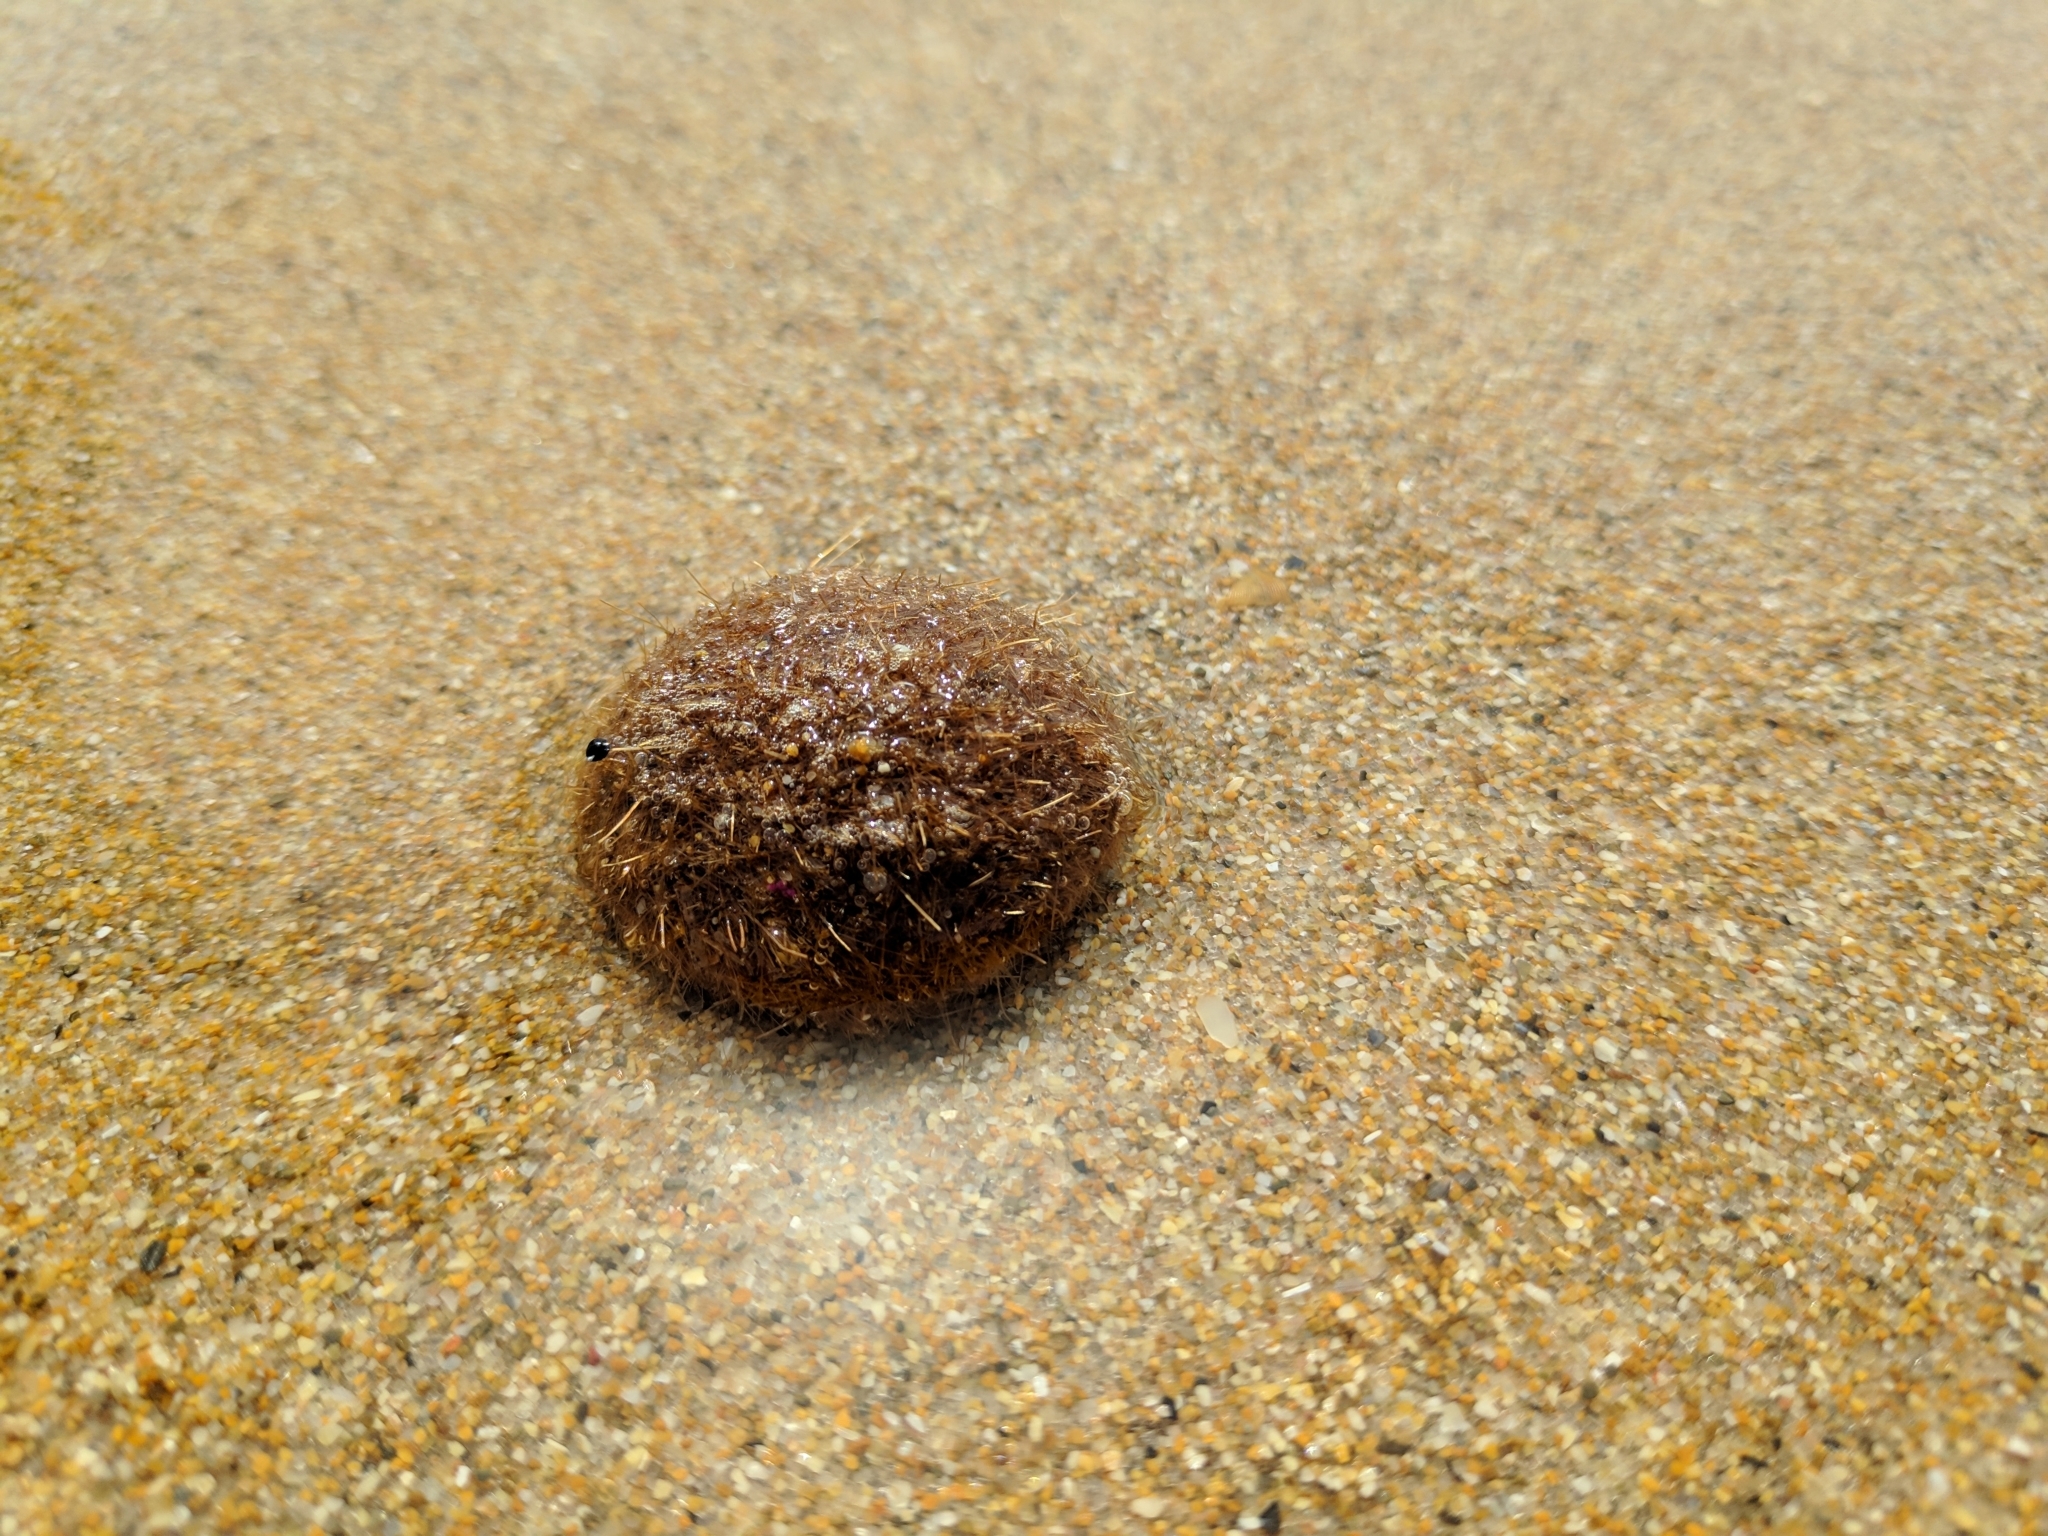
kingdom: Plantae
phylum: Tracheophyta
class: Liliopsida
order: Alismatales
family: Posidoniaceae
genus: Posidonia
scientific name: Posidonia oceanica
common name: Mediterranean tapeweed
